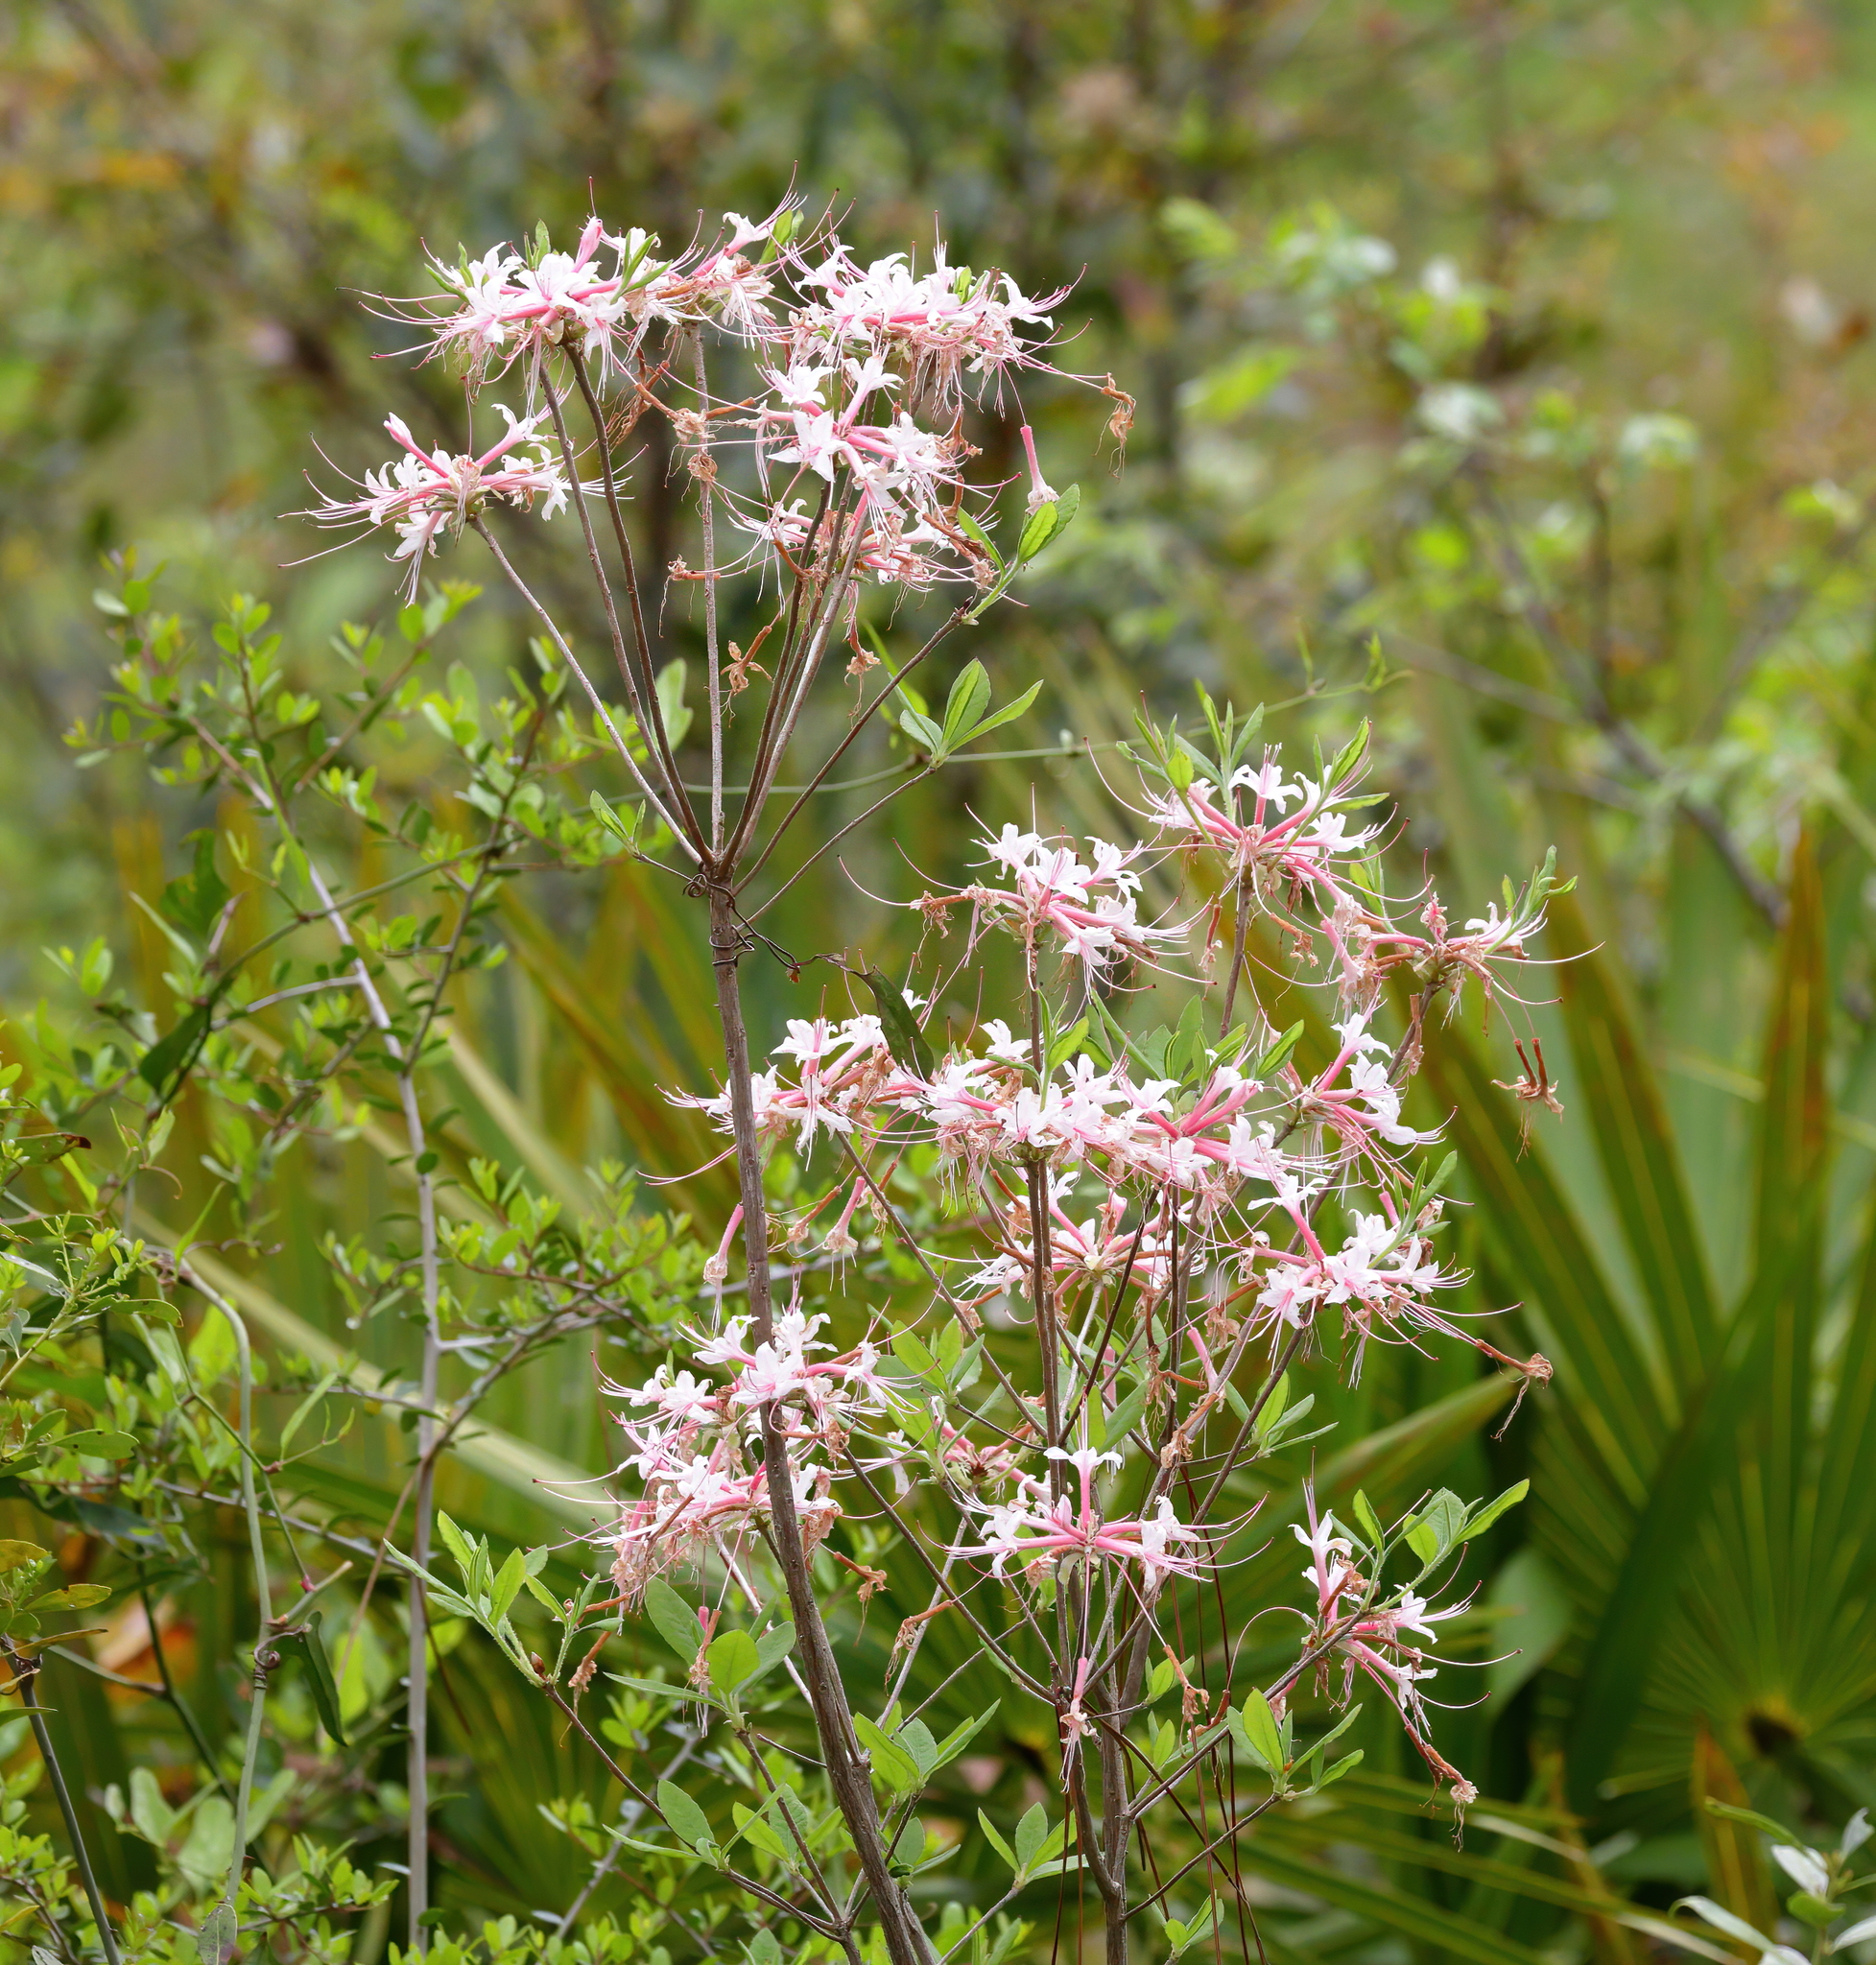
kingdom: Plantae
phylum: Tracheophyta
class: Magnoliopsida
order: Ericales
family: Ericaceae
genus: Rhododendron
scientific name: Rhododendron canescens
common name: Mountain azalea
